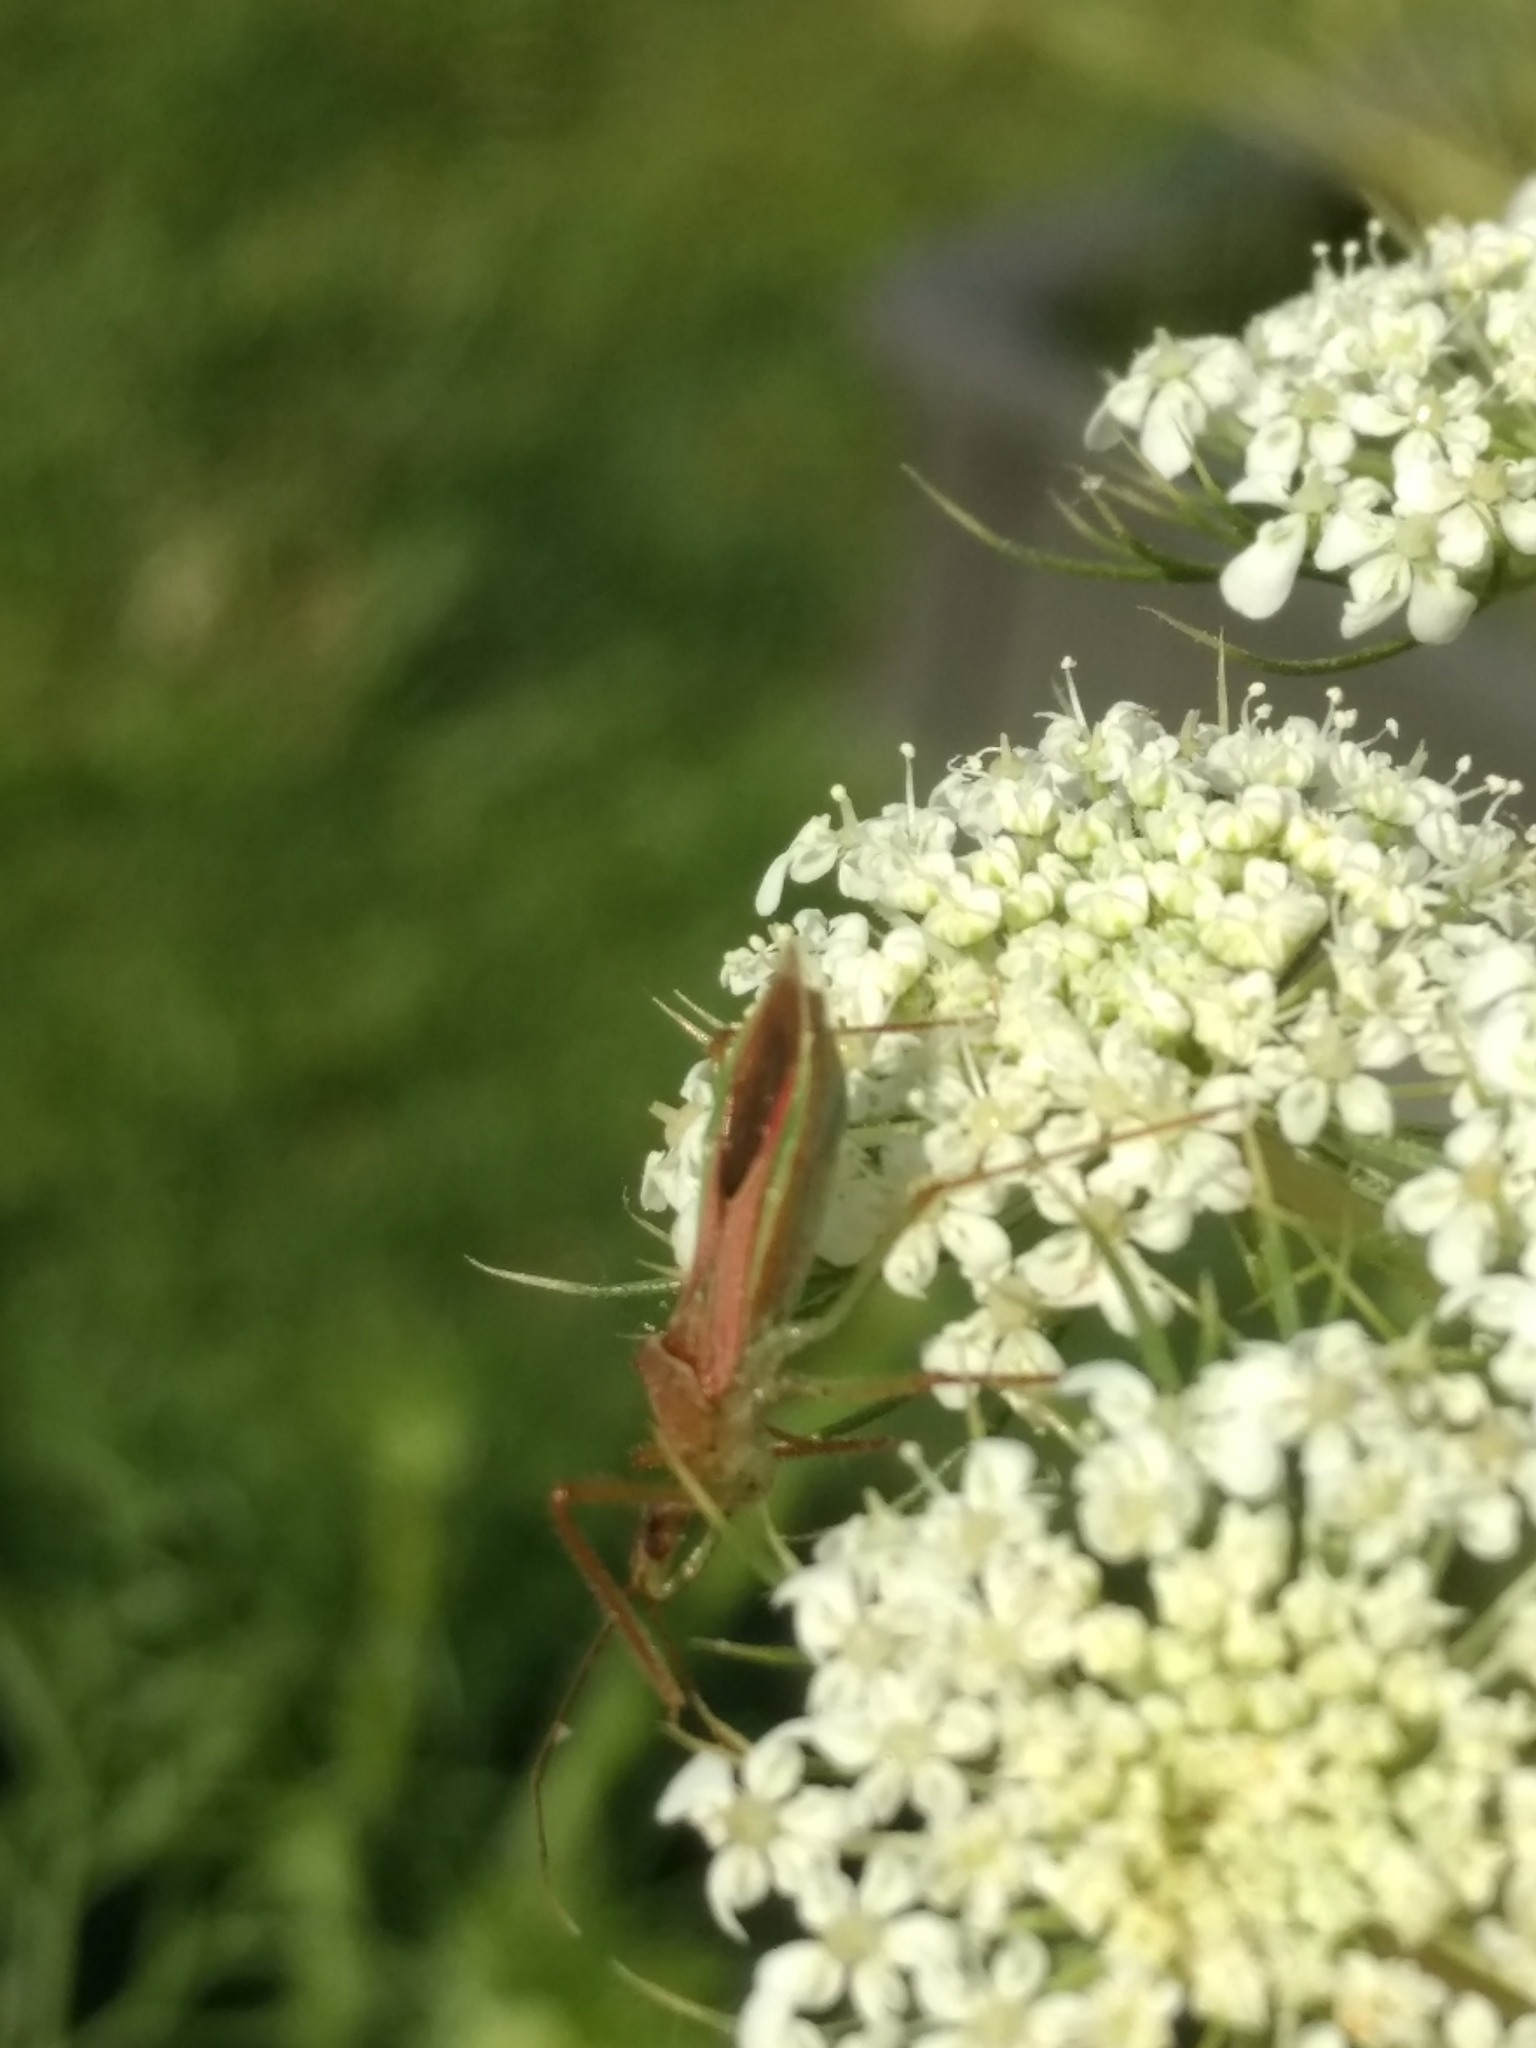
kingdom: Animalia
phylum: Arthropoda
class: Insecta
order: Hemiptera
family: Reduviidae
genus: Zelus
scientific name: Zelus renardii
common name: Assassin bug
